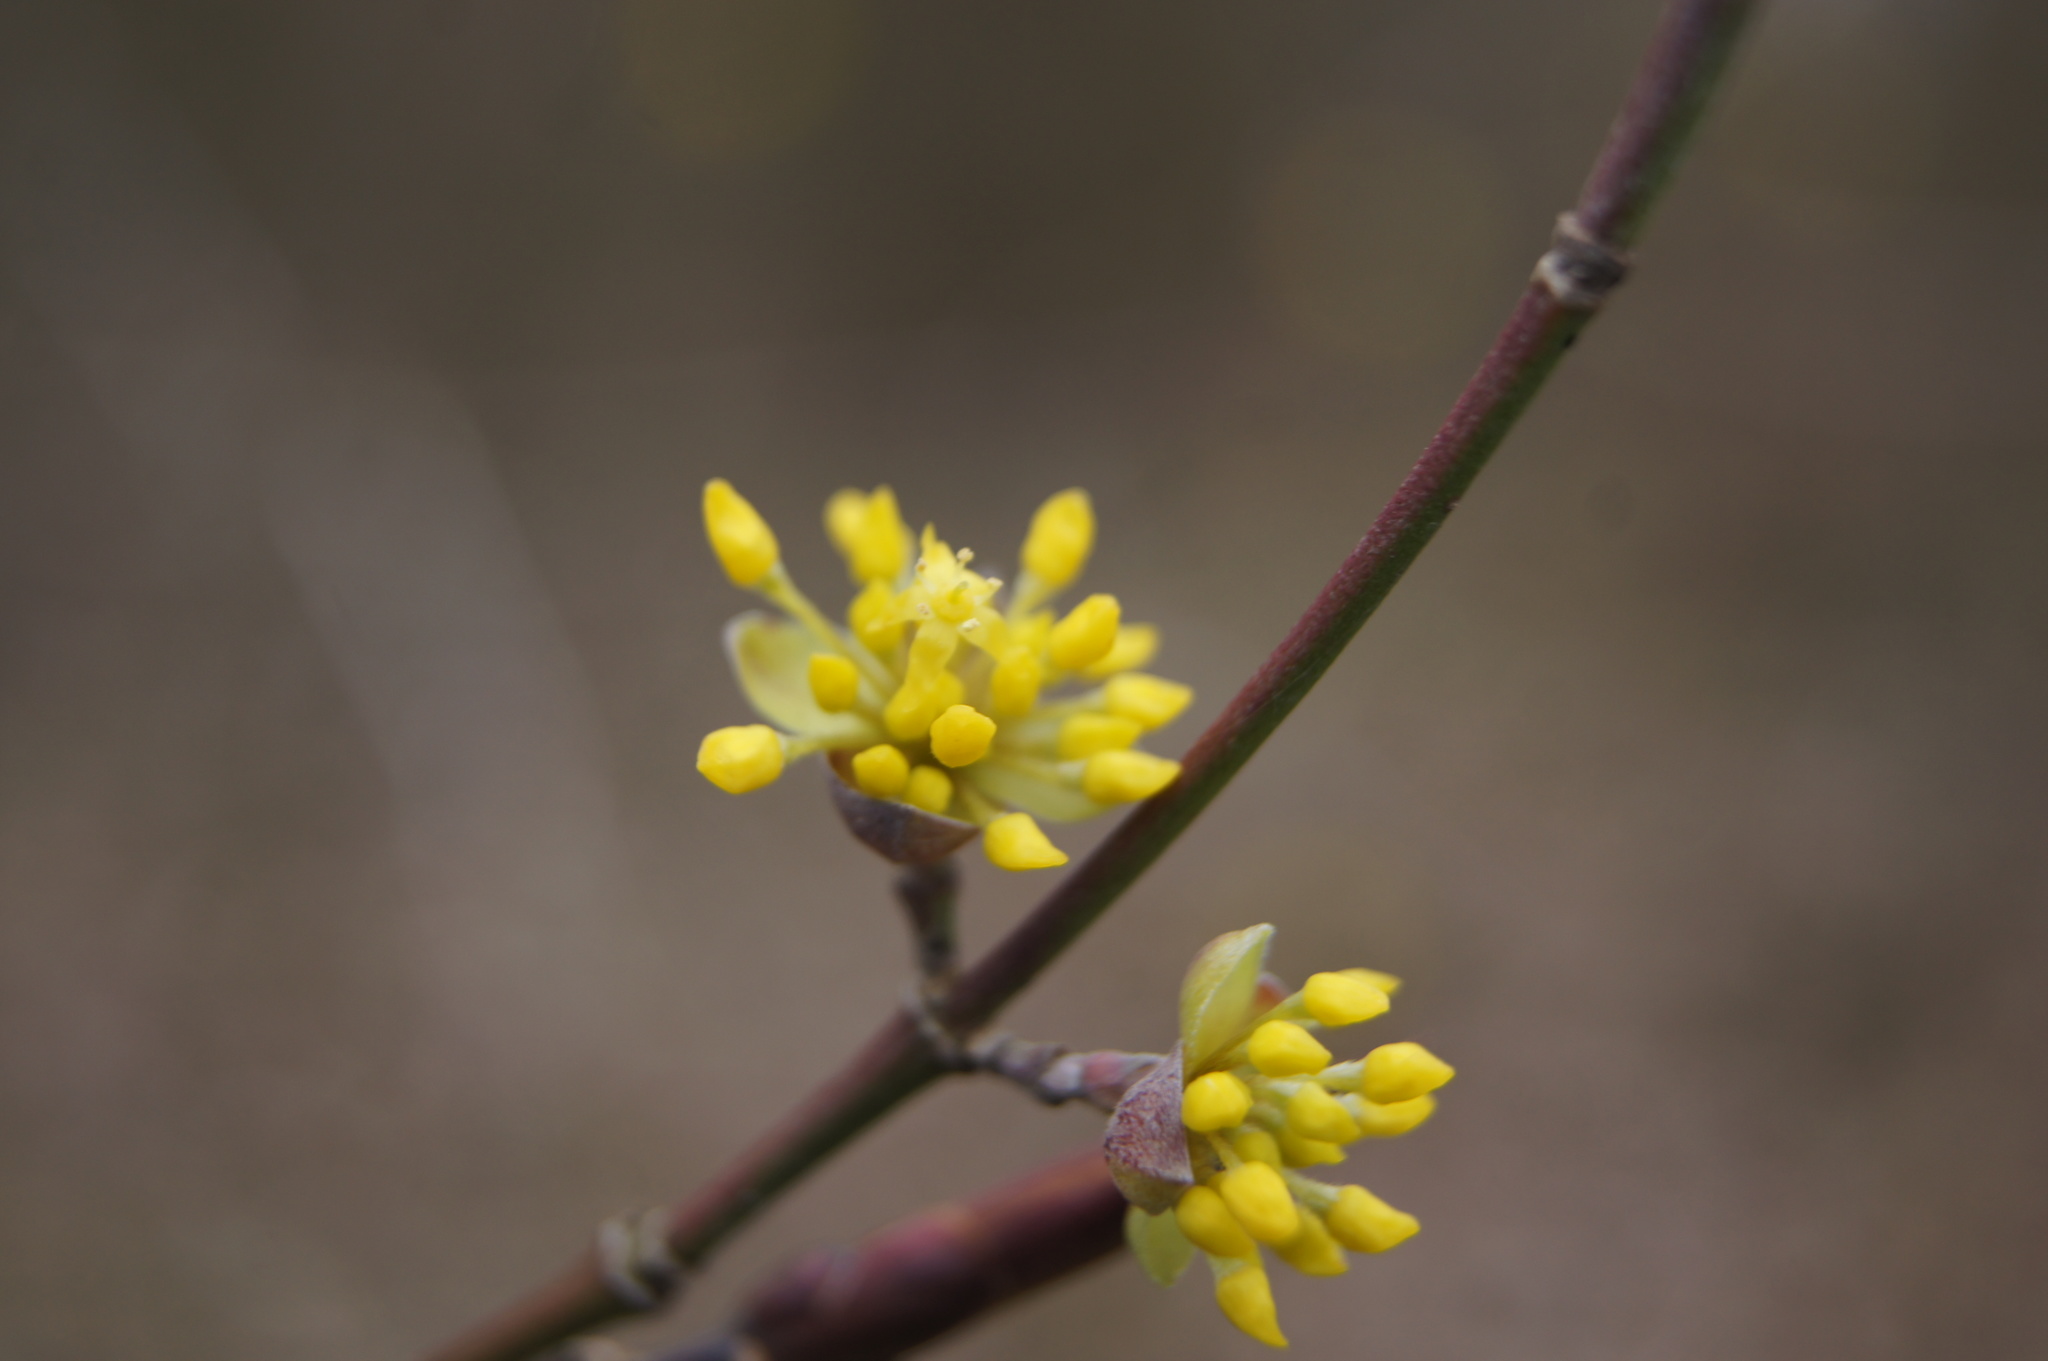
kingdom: Plantae
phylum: Tracheophyta
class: Magnoliopsida
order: Cornales
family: Cornaceae
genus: Cornus
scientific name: Cornus mas
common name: Cornelian-cherry
